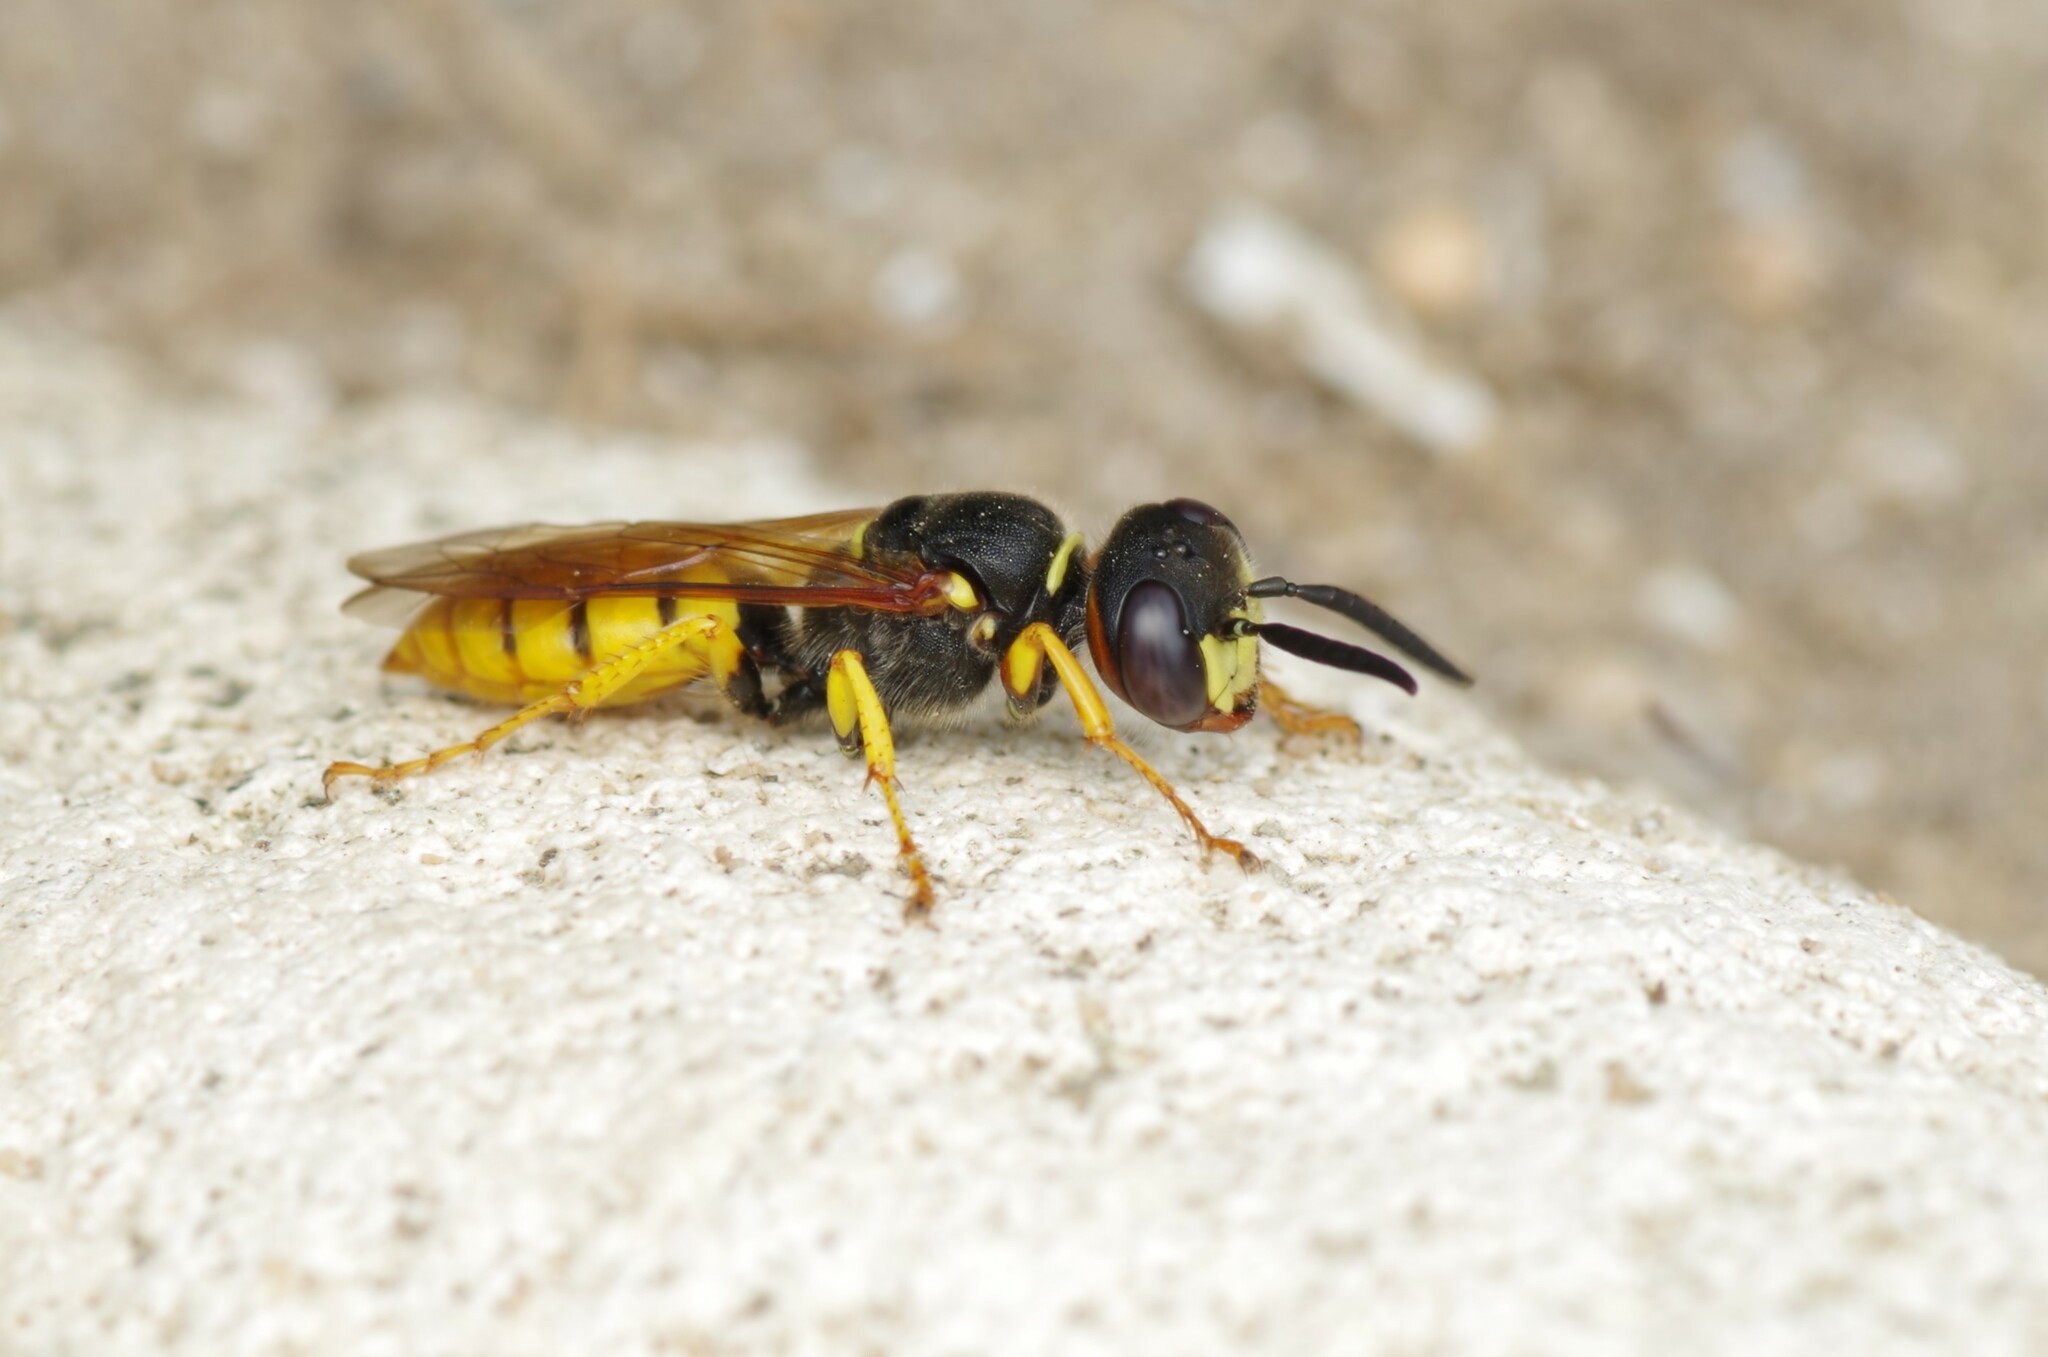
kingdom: Animalia
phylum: Arthropoda
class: Insecta
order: Hymenoptera
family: Crabronidae
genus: Philanthus
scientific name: Philanthus triangulum
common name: Bee wolf
